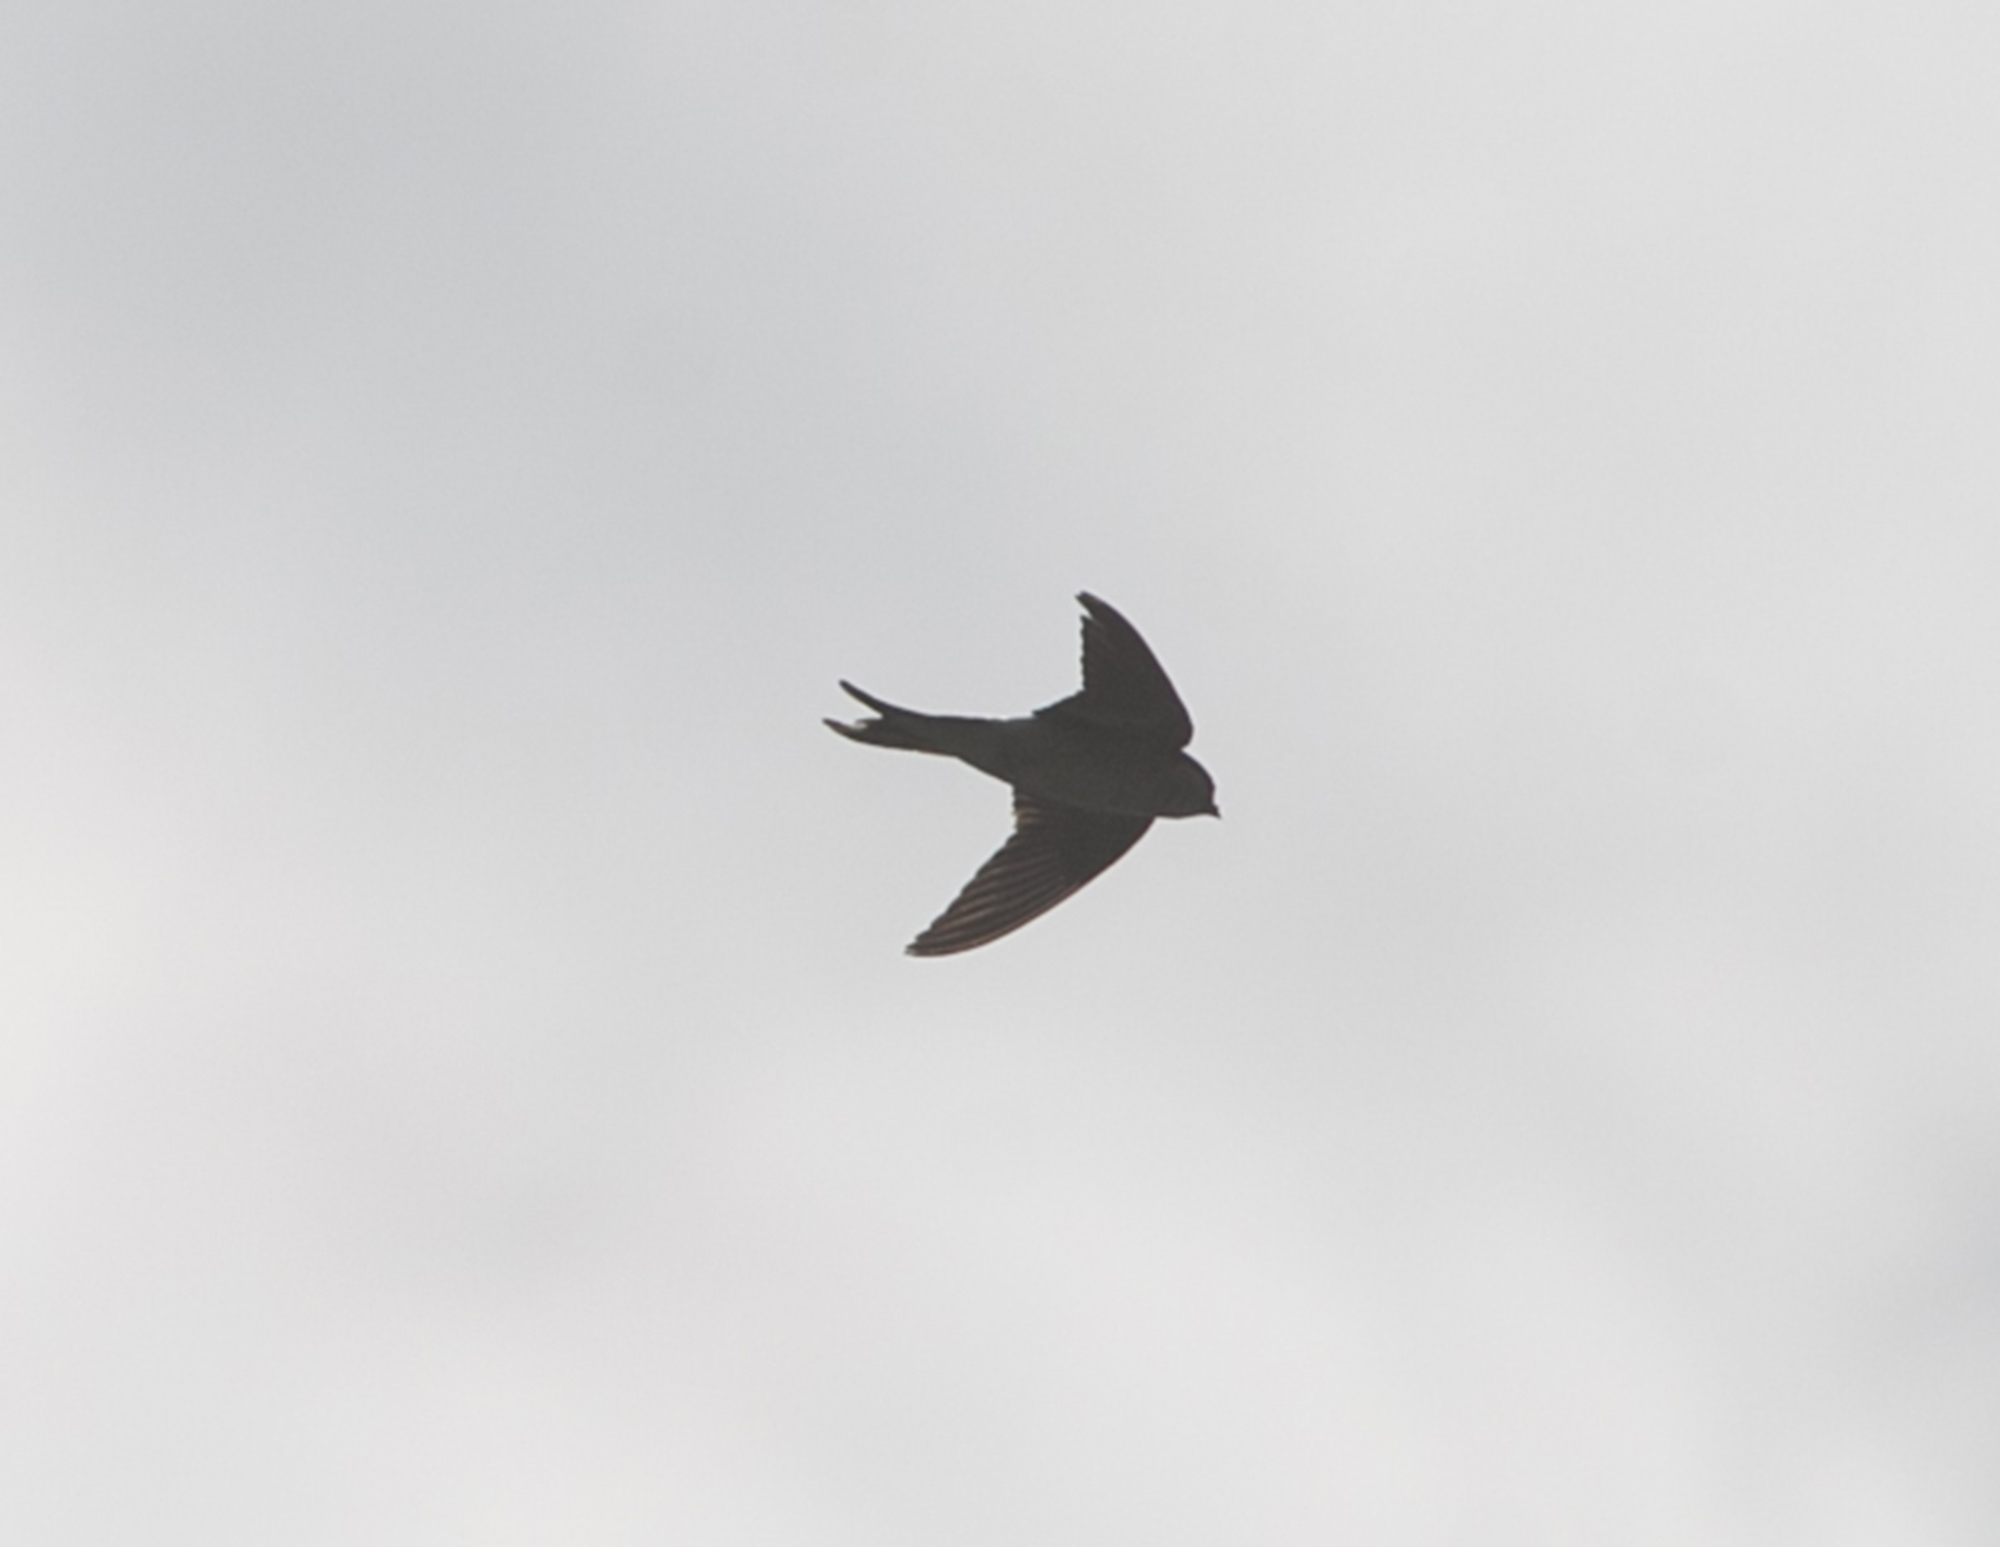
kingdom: Animalia
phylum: Chordata
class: Aves
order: Passeriformes
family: Hirundinidae
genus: Hirundo
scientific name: Hirundo rustica
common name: Barn swallow
